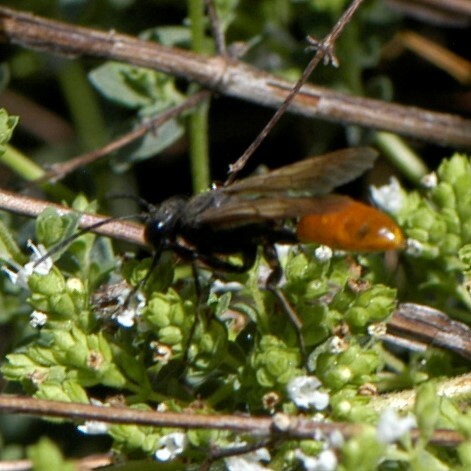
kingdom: Animalia
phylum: Arthropoda
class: Insecta
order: Hymenoptera
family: Sphecidae
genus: Sphex
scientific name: Sphex lucae
